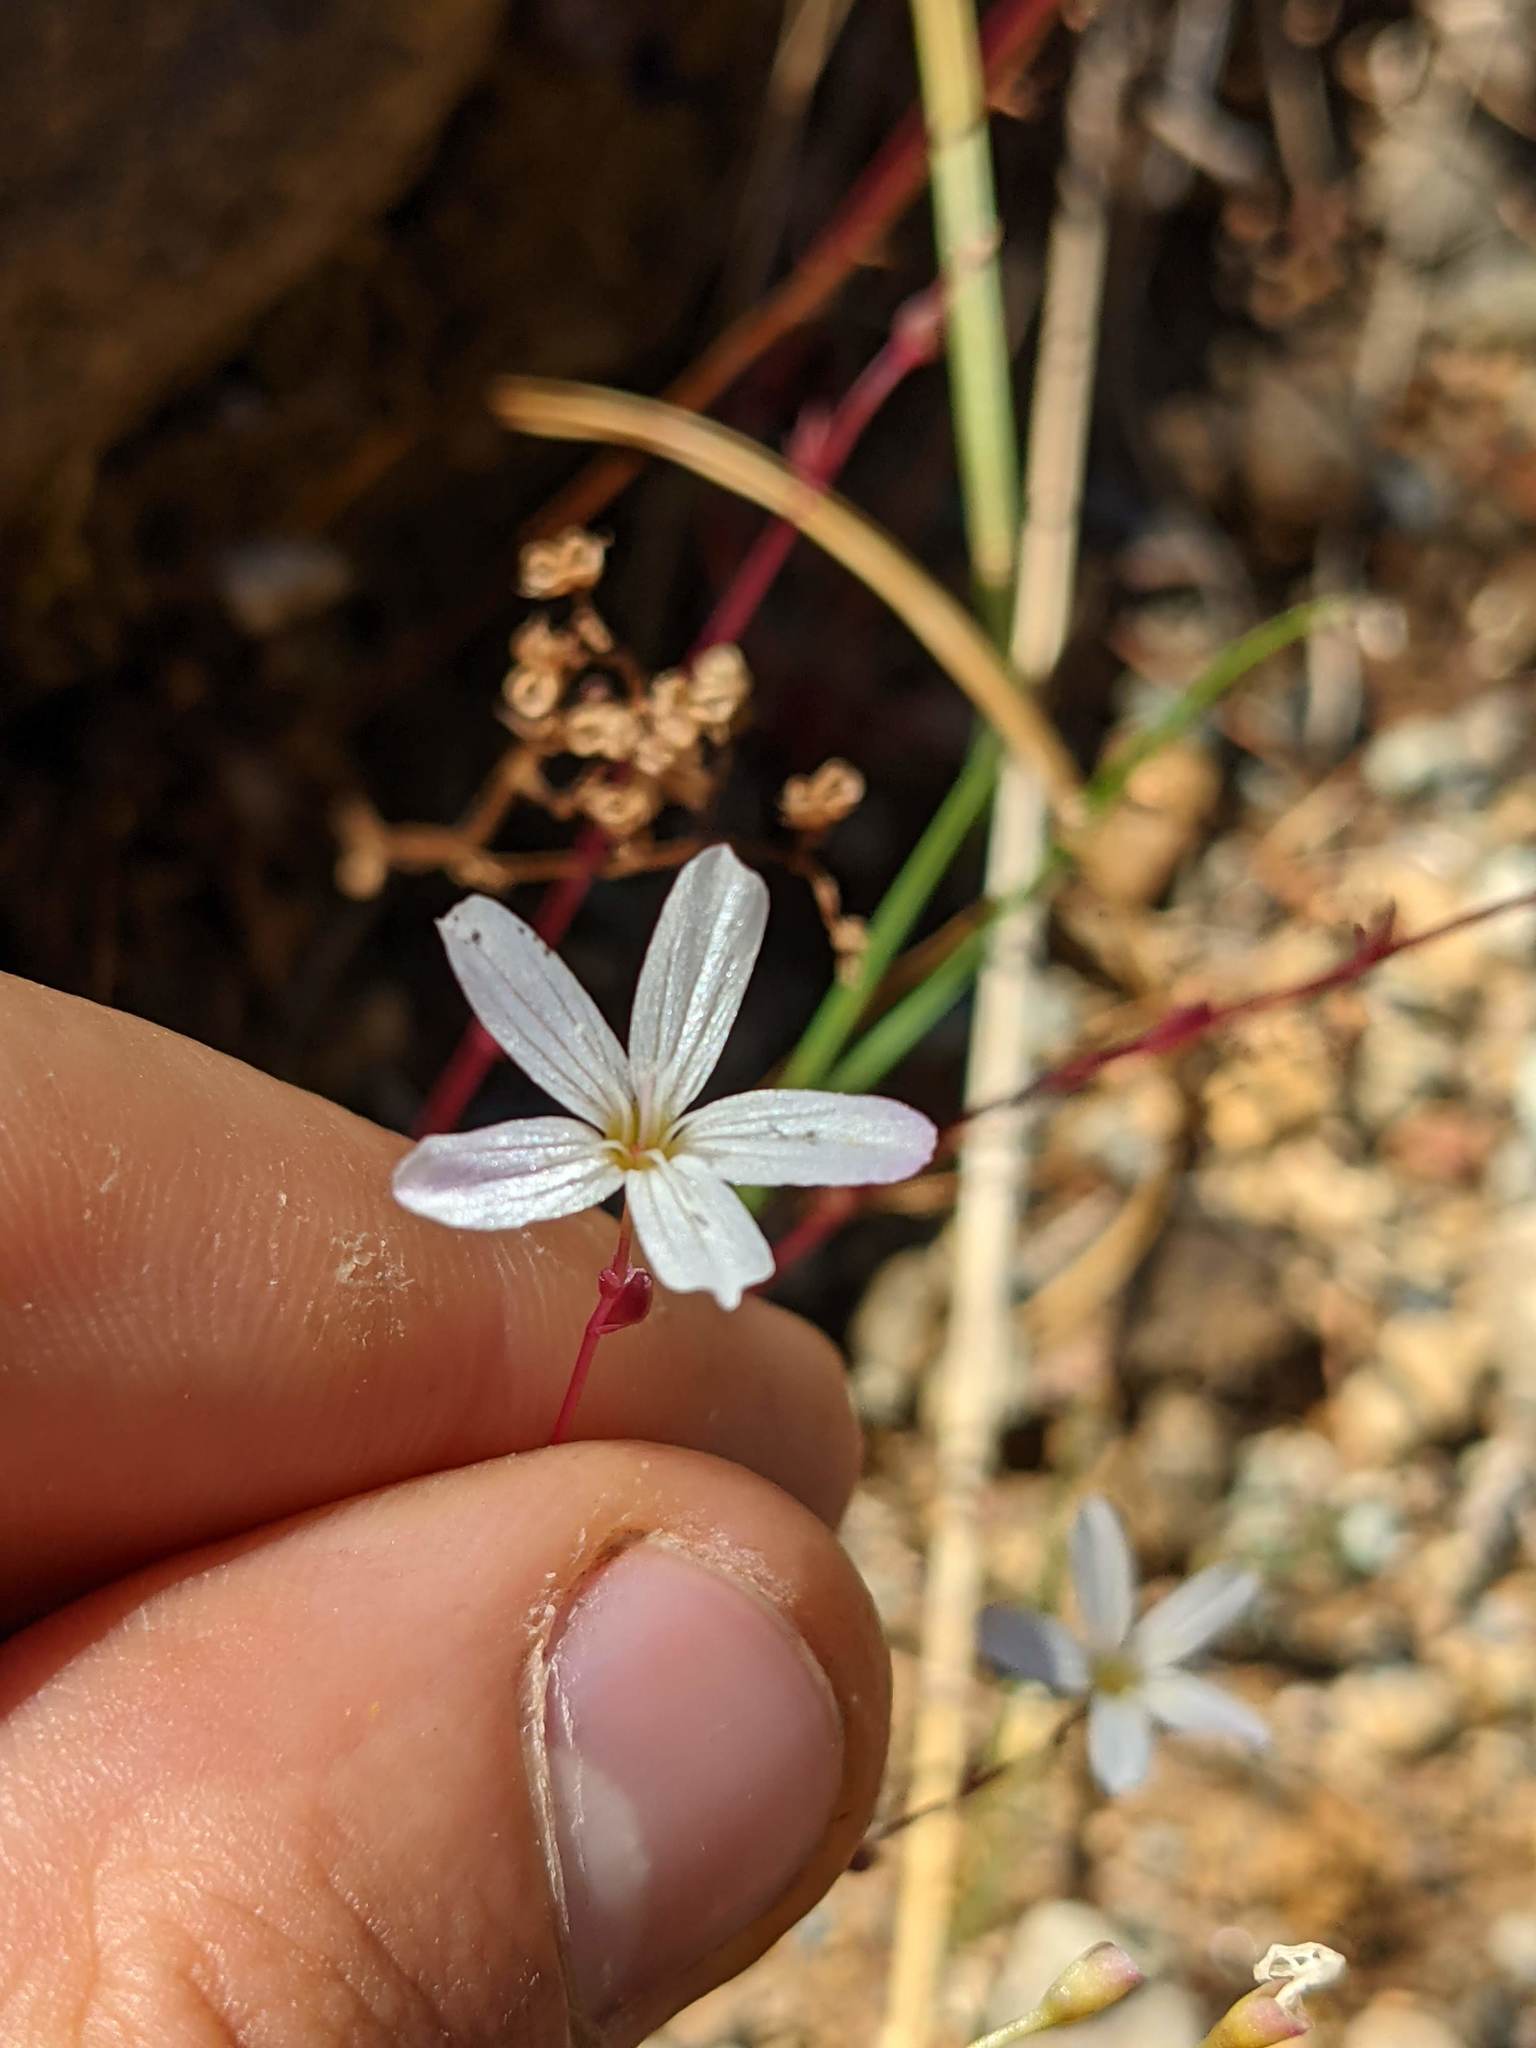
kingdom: Plantae
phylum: Tracheophyta
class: Magnoliopsida
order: Caryophyllales
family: Montiaceae
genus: Montia
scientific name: Montia parvifolia
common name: Small-leaved blinks
